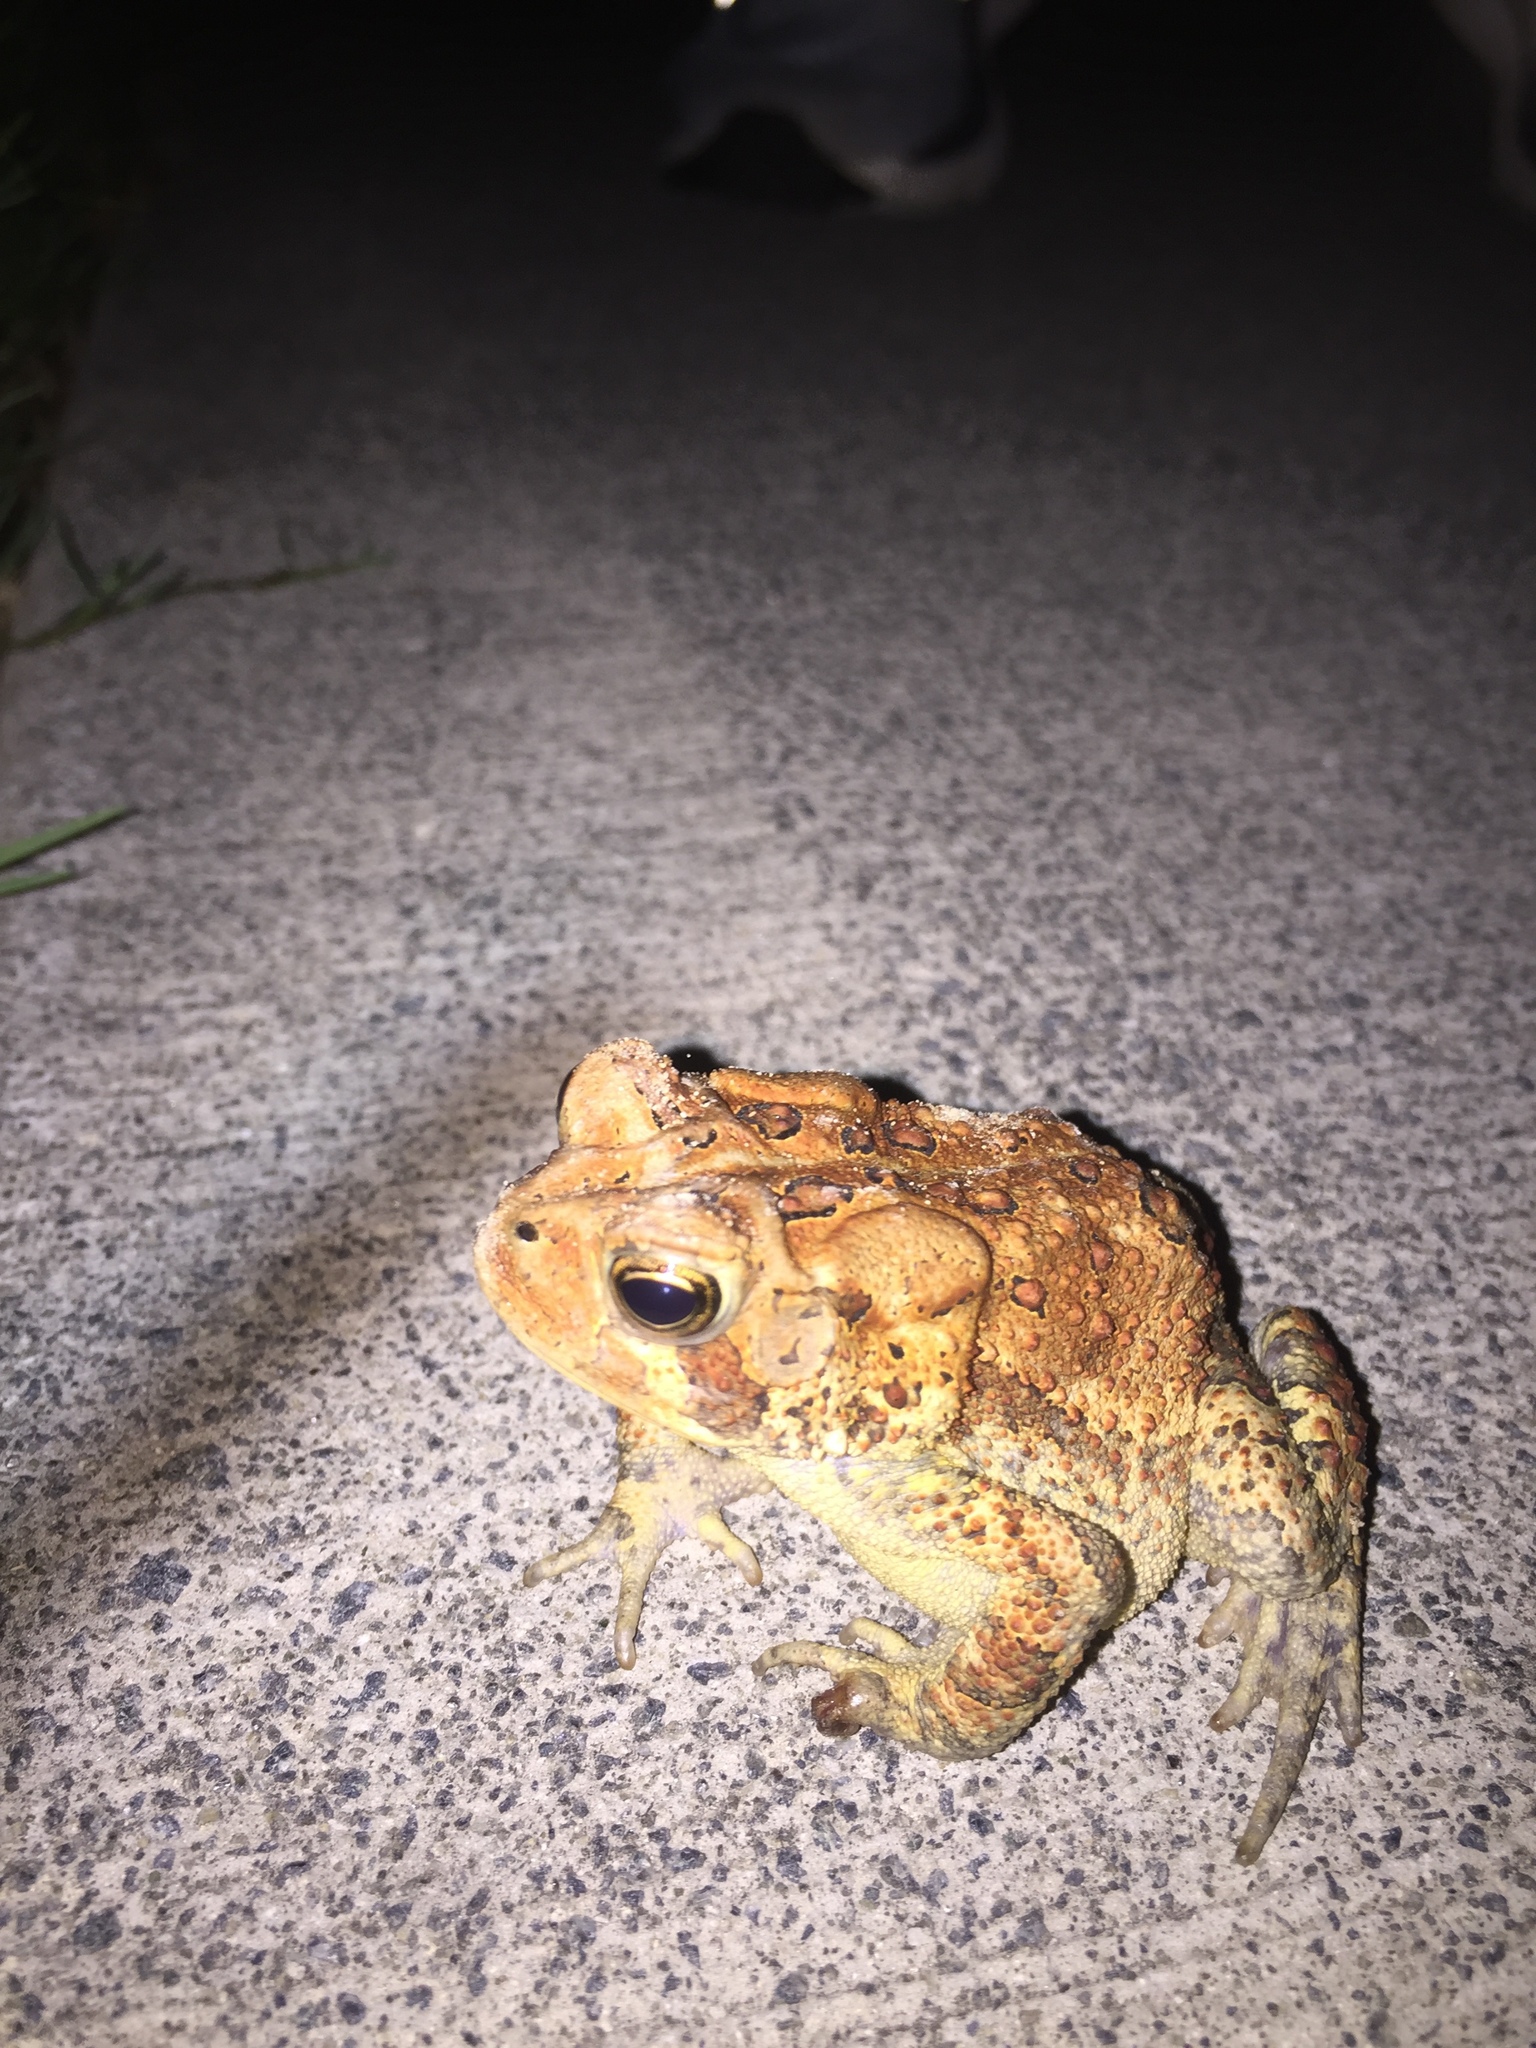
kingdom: Animalia
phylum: Chordata
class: Amphibia
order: Anura
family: Bufonidae
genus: Anaxyrus
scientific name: Anaxyrus americanus
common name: American toad
